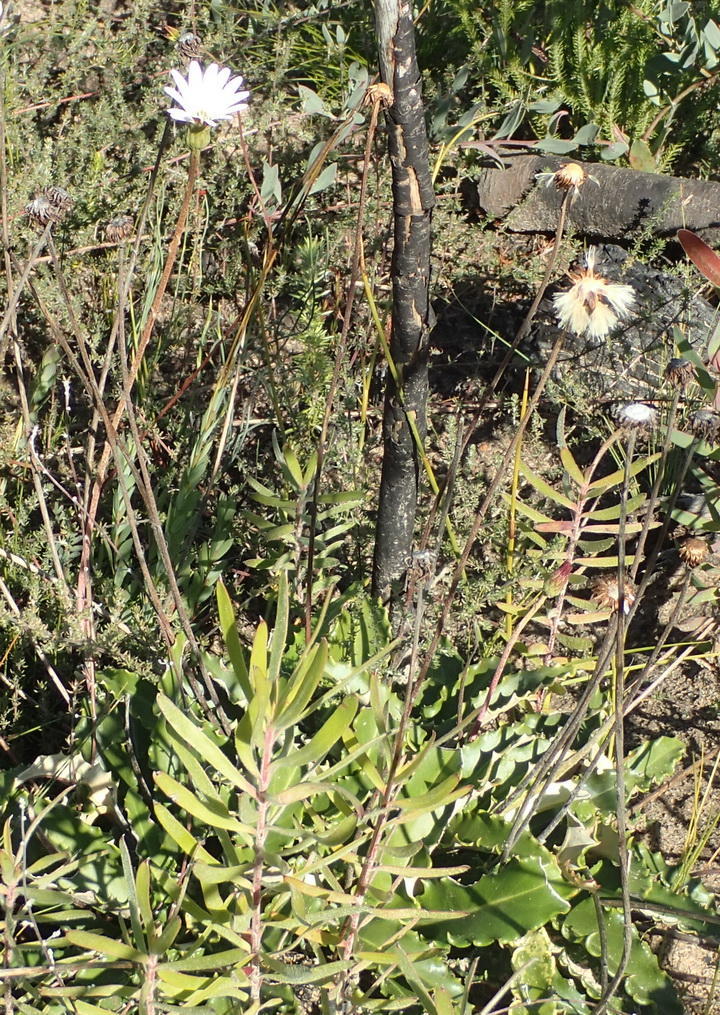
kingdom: Plantae
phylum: Tracheophyta
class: Magnoliopsida
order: Asterales
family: Asteraceae
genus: Gerbera
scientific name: Gerbera serrata
